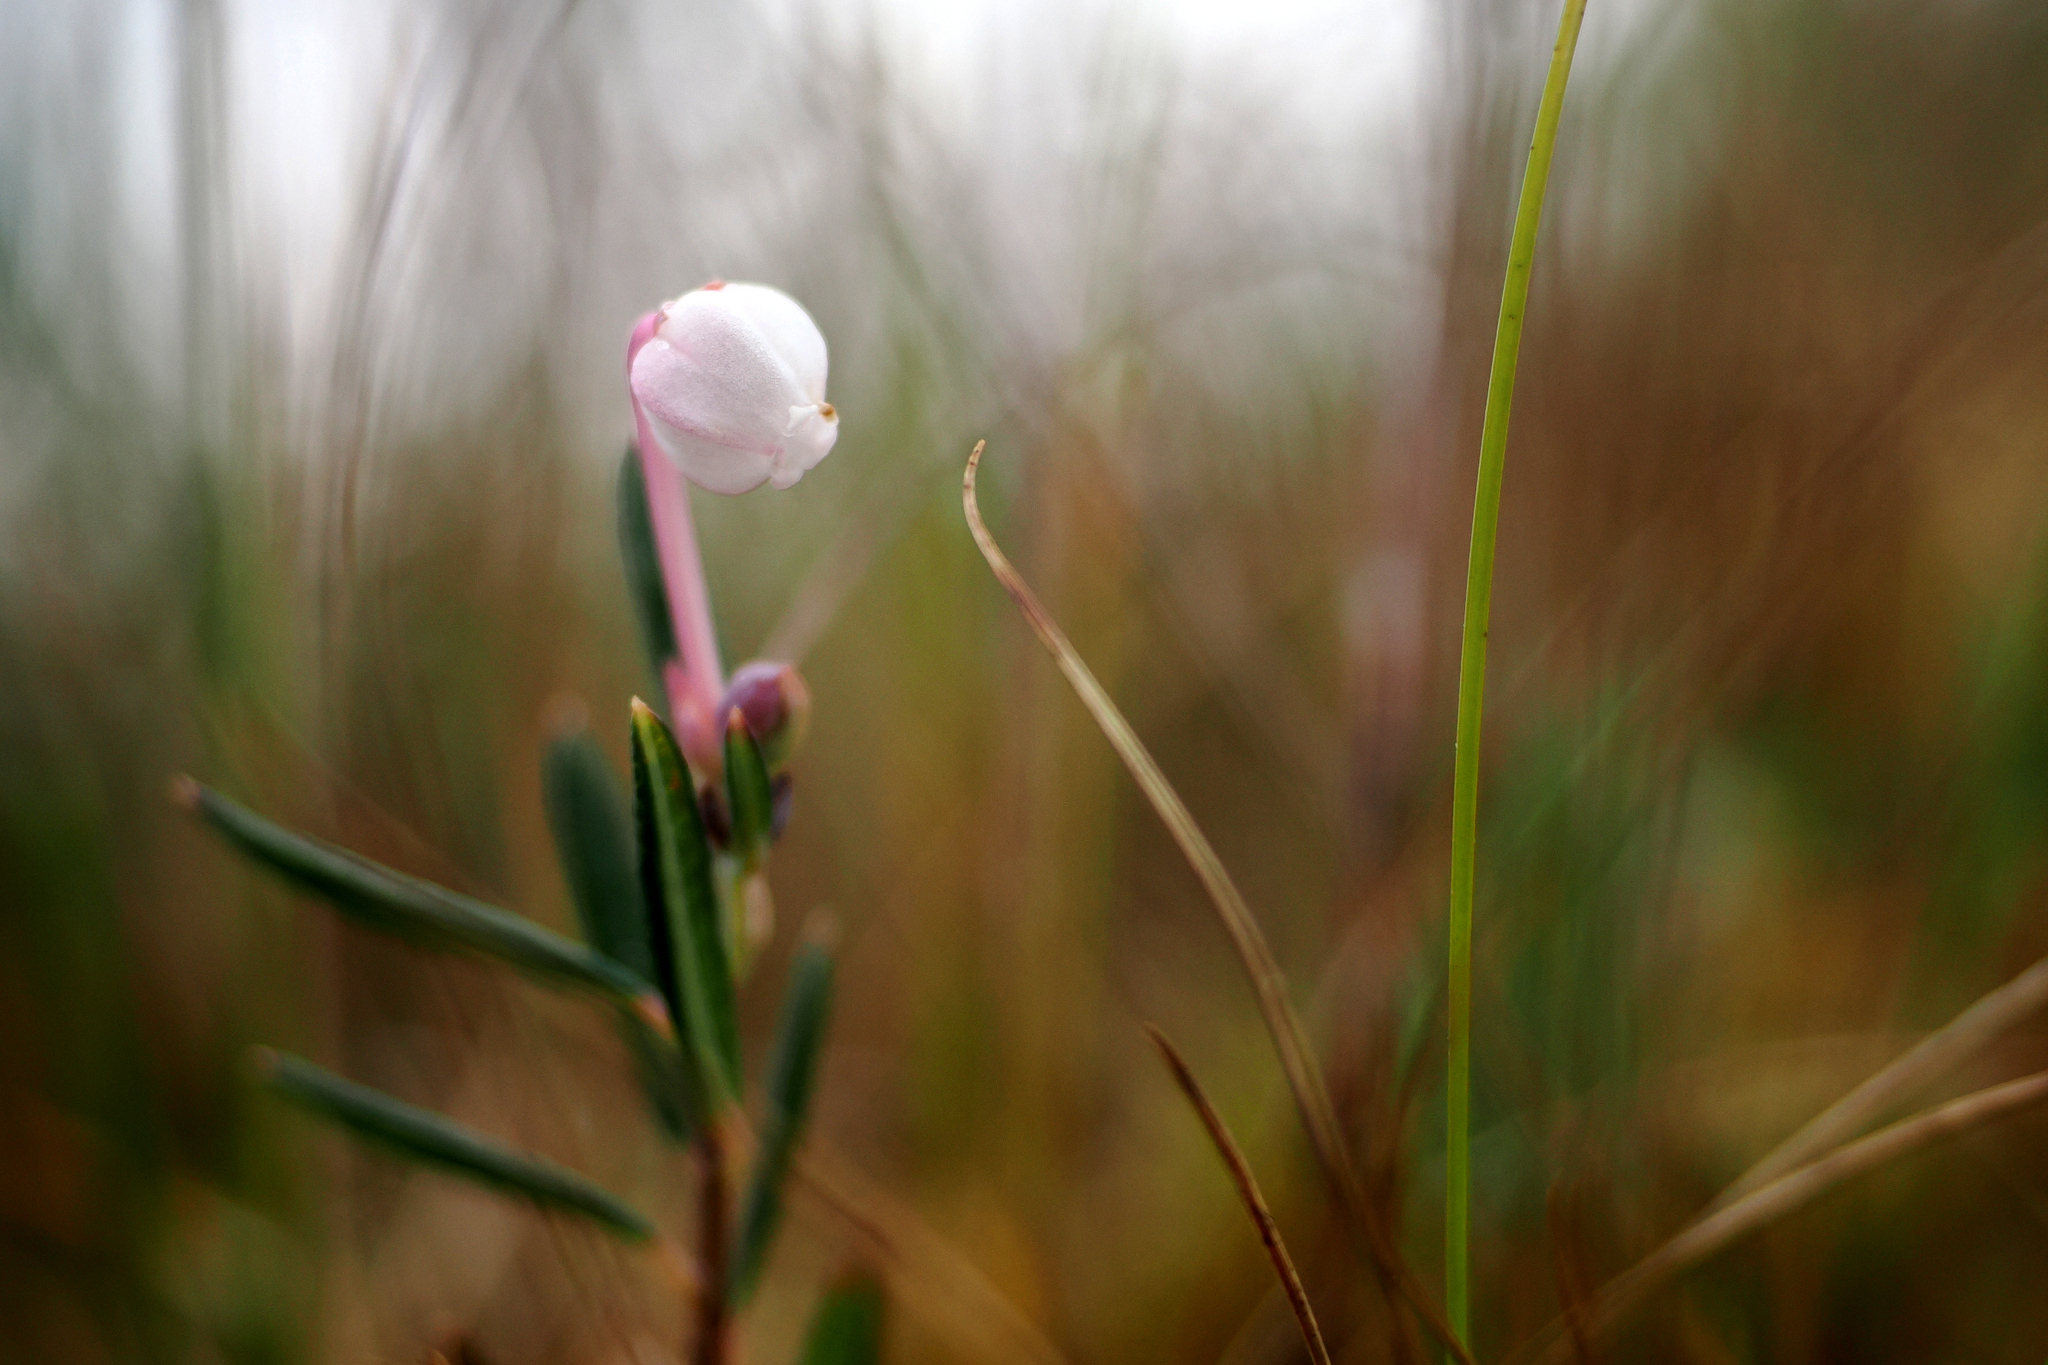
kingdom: Plantae
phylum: Tracheophyta
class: Magnoliopsida
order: Ericales
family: Ericaceae
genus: Andromeda
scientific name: Andromeda polifolia
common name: Bog-rosemary
